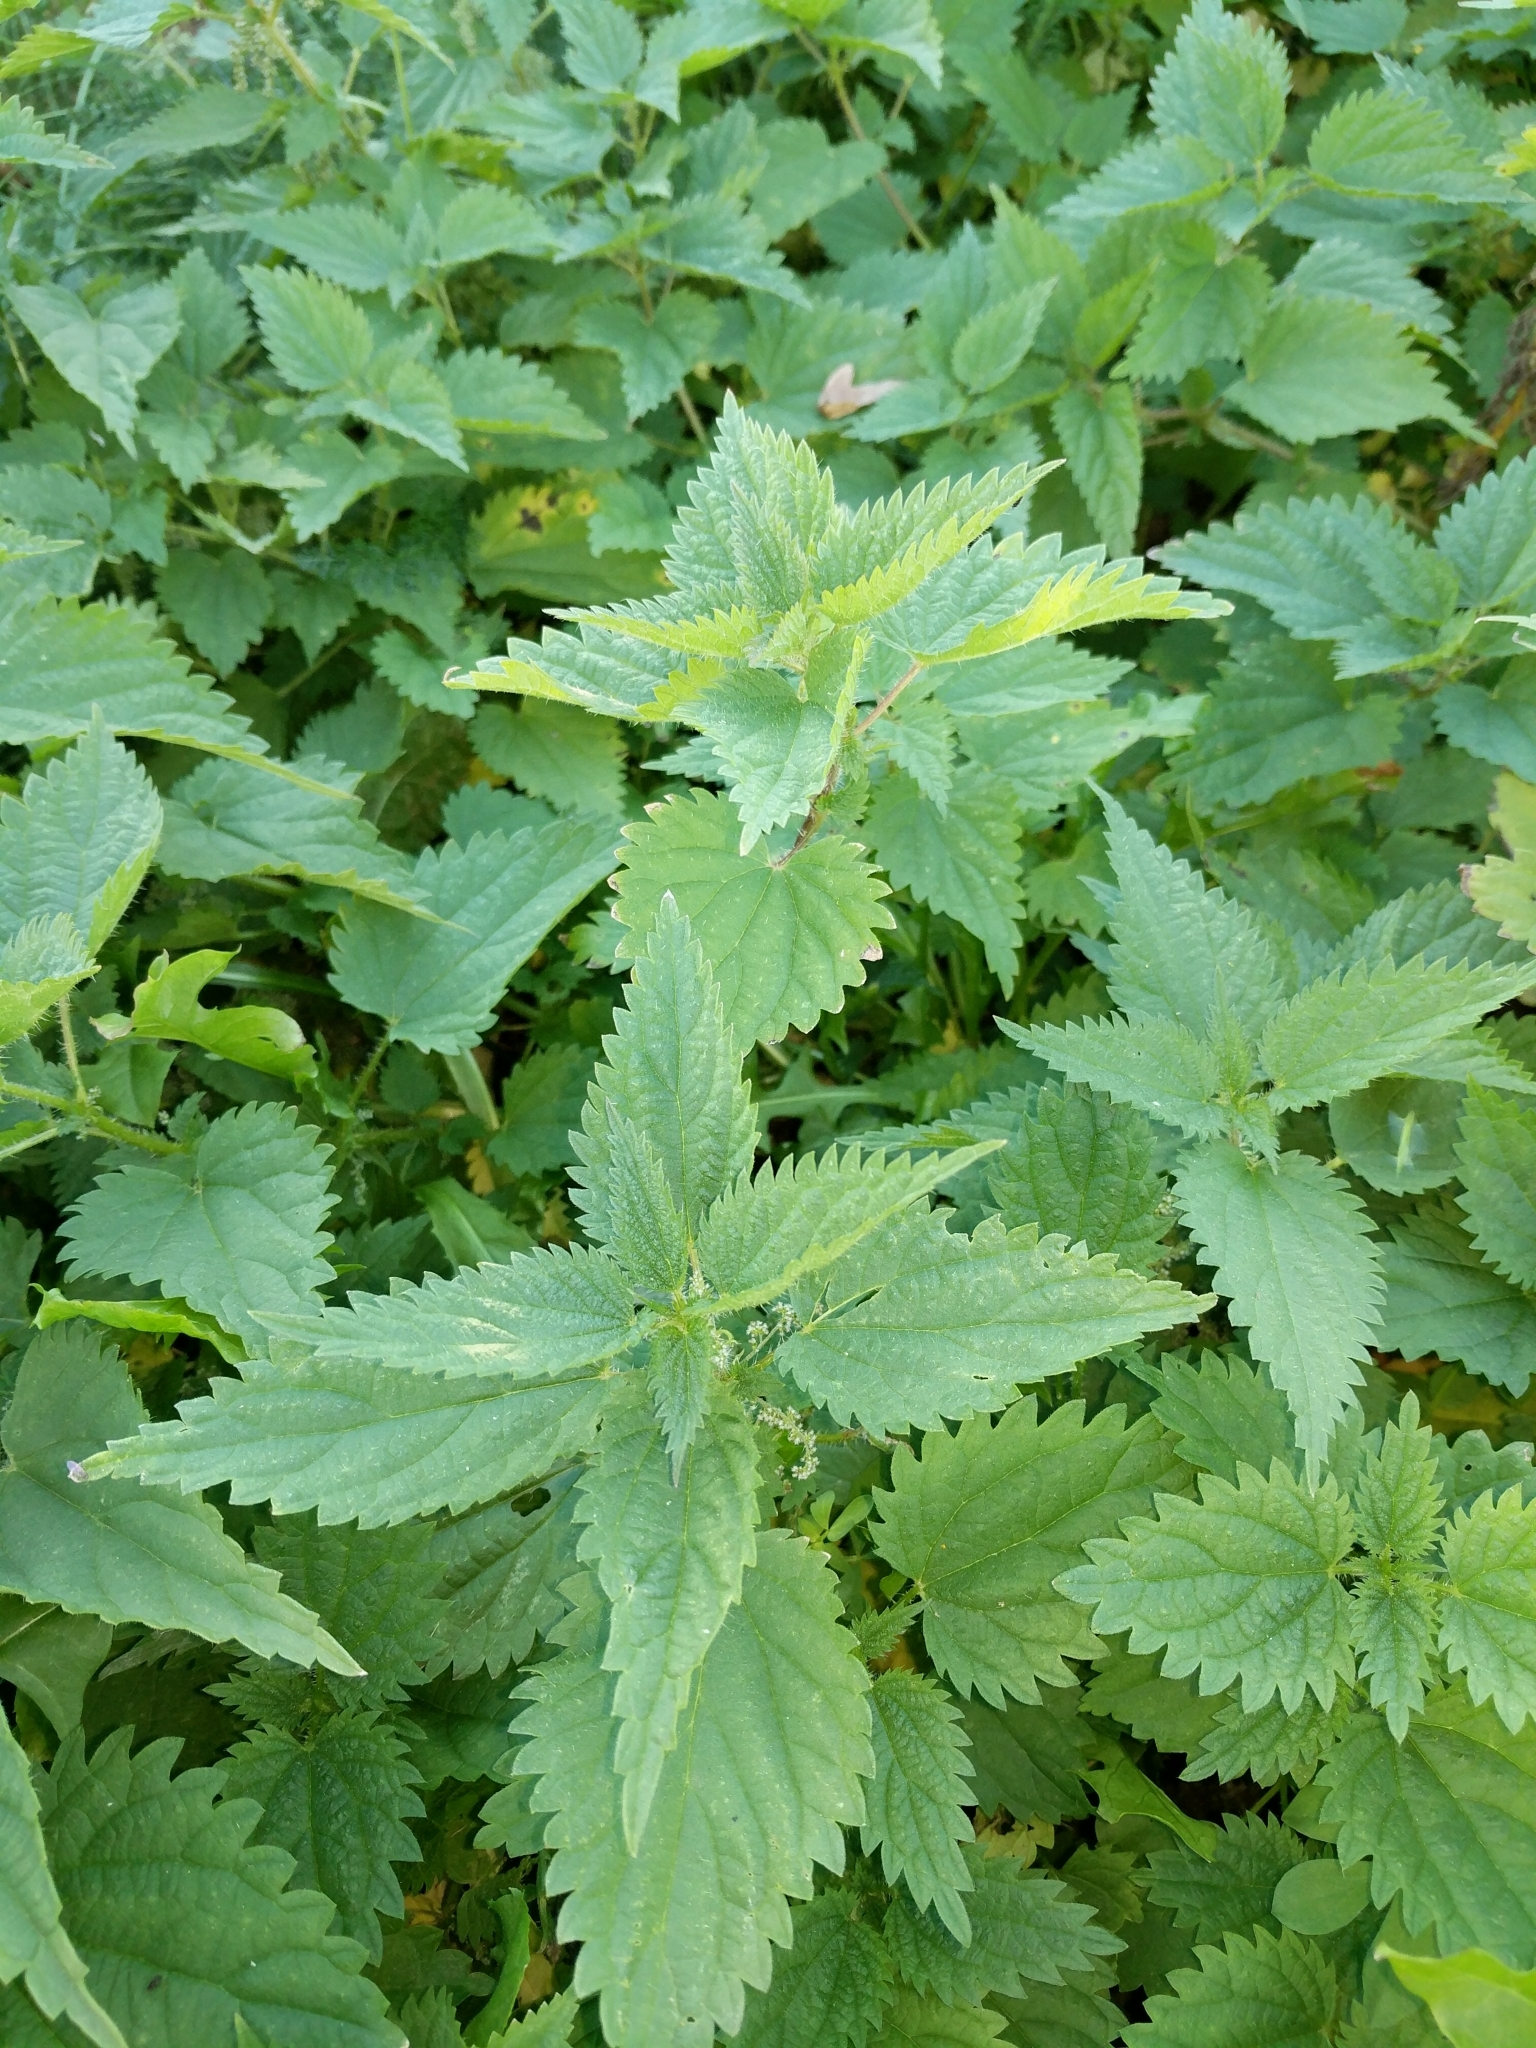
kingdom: Plantae
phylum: Tracheophyta
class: Magnoliopsida
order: Rosales
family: Urticaceae
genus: Urtica
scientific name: Urtica dioica
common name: Common nettle
